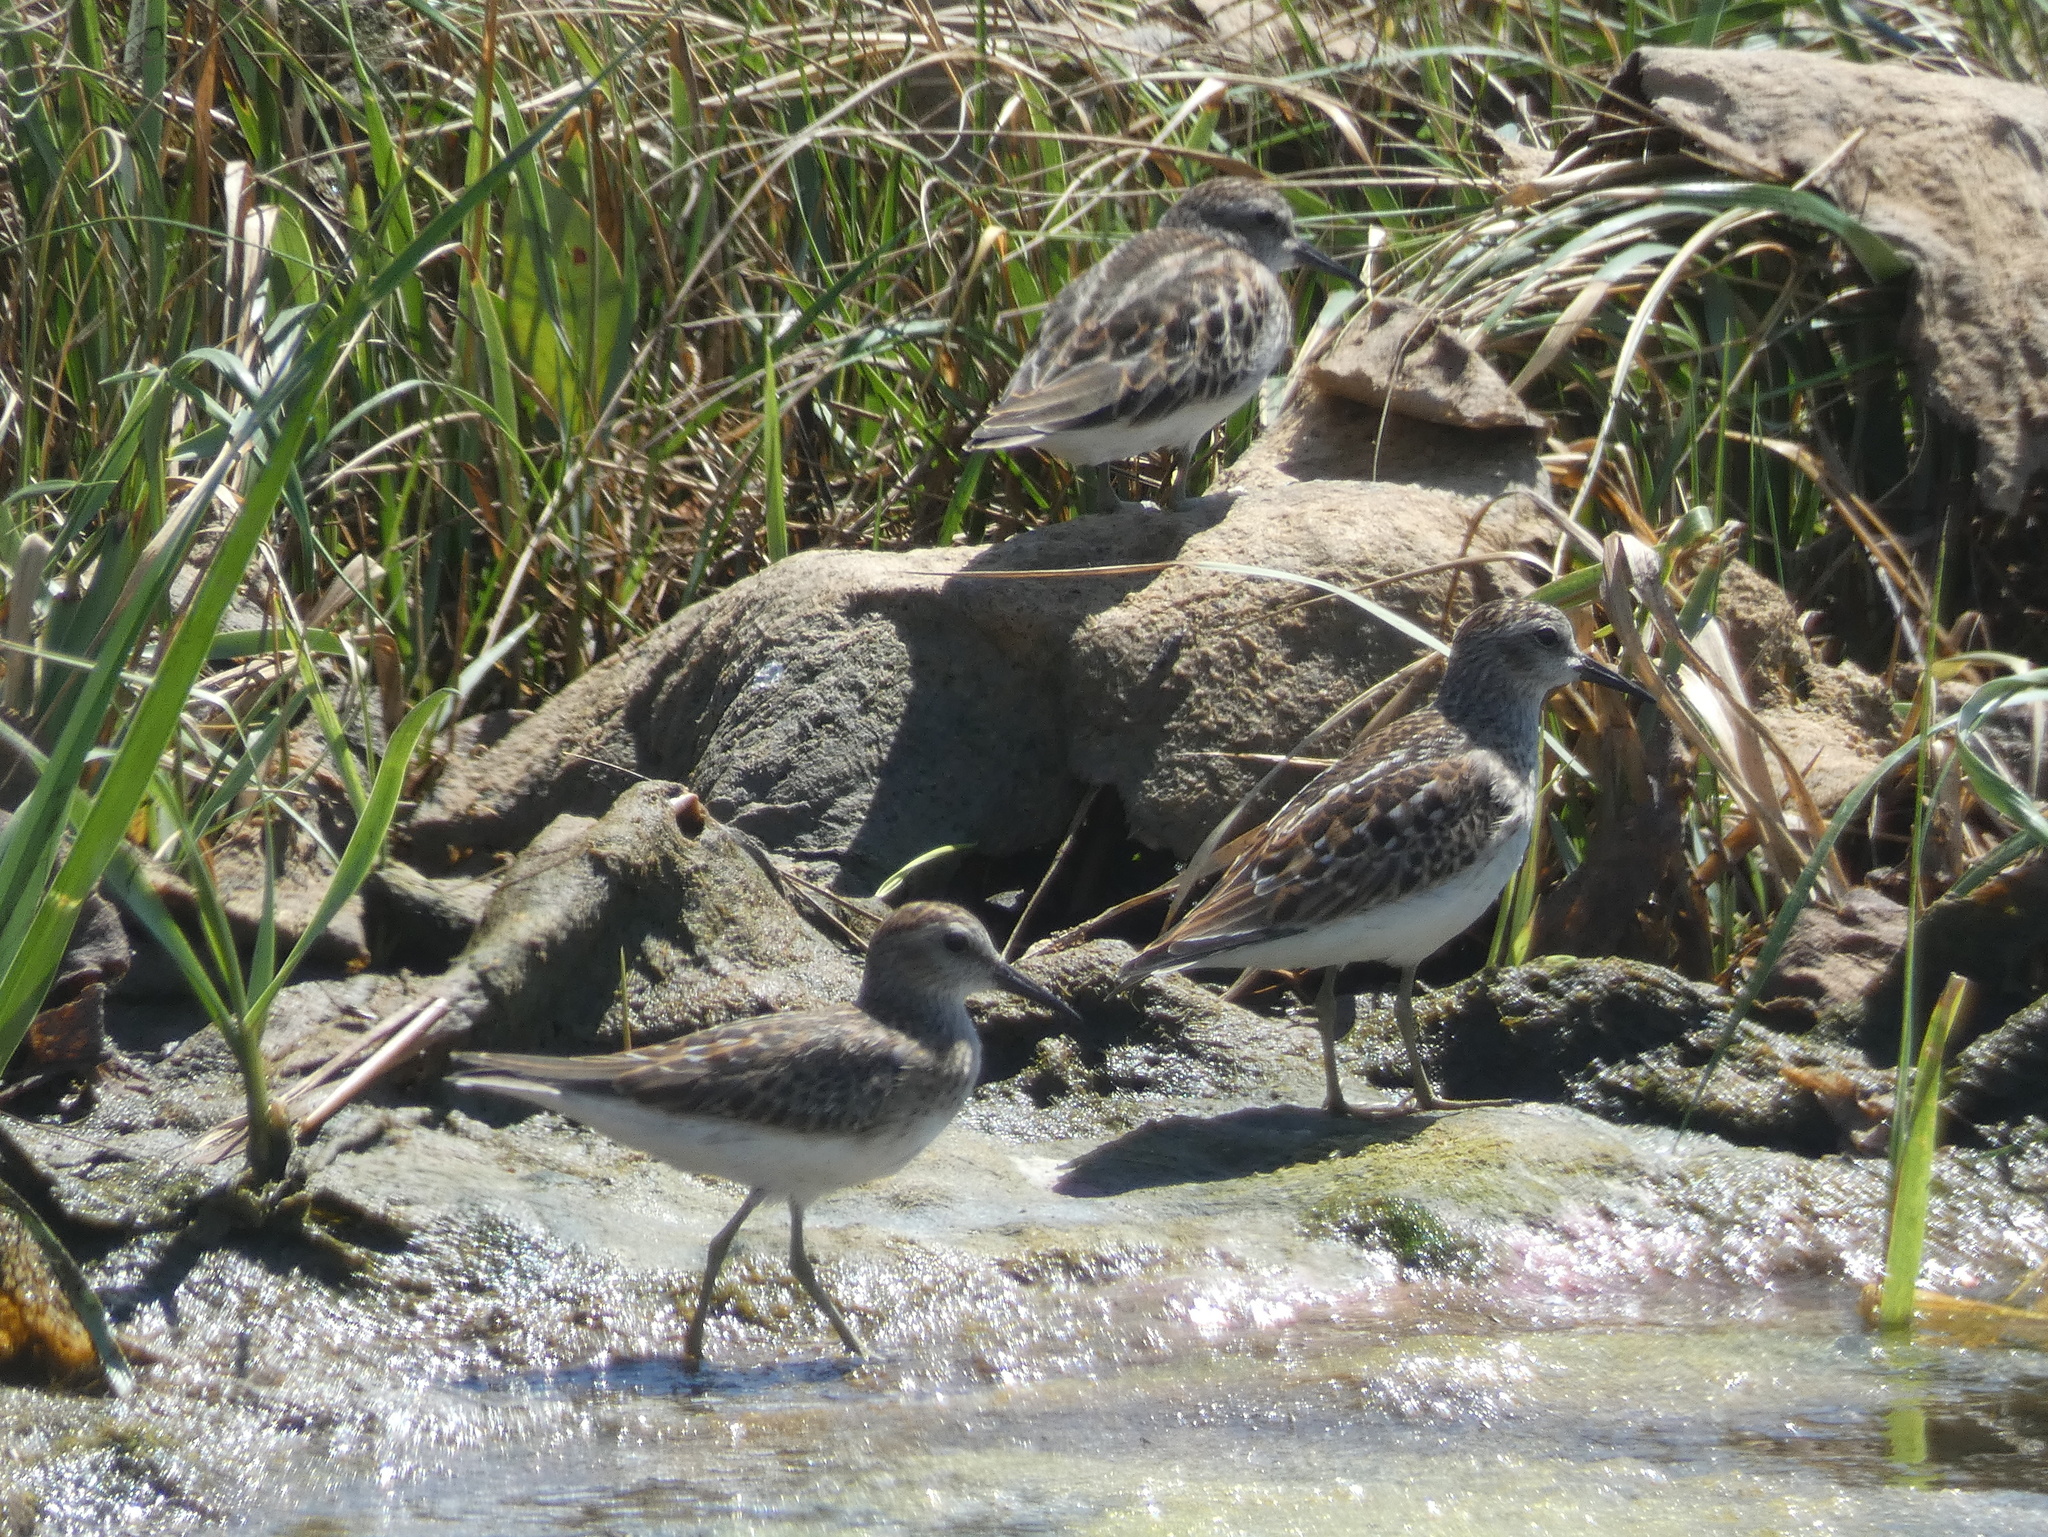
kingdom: Animalia
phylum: Chordata
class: Aves
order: Charadriiformes
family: Scolopacidae
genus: Calidris
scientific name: Calidris minutilla
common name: Least sandpiper
